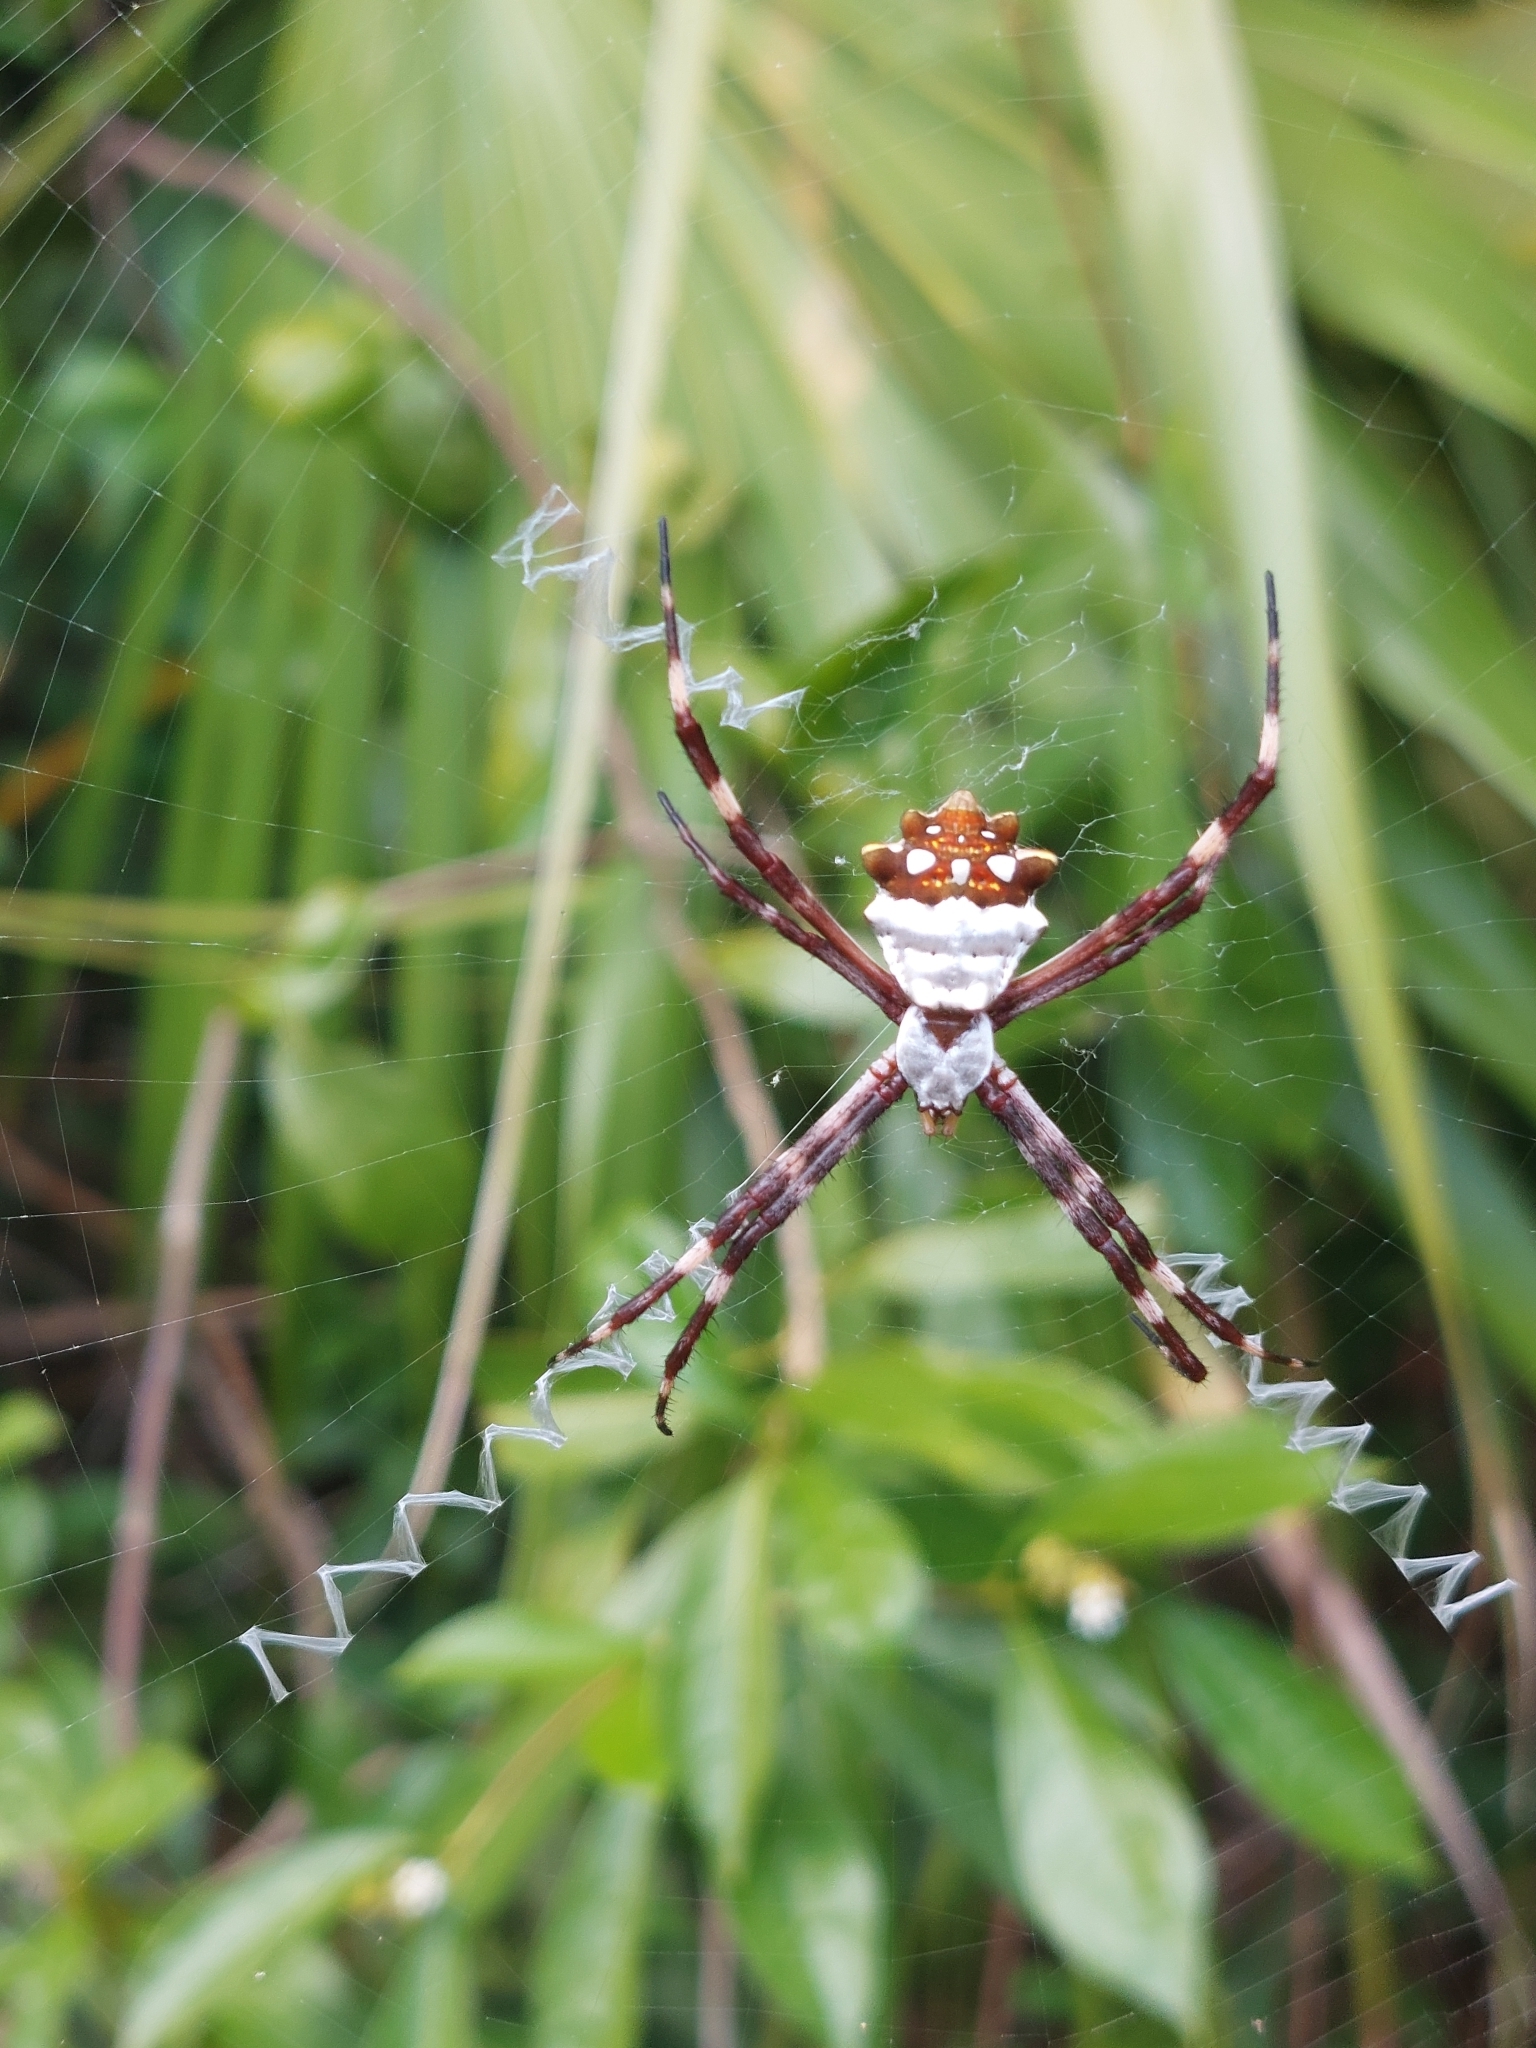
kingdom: Animalia
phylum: Arthropoda
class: Arachnida
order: Araneae
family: Araneidae
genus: Argiope
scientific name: Argiope argentata
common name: Orb weavers
